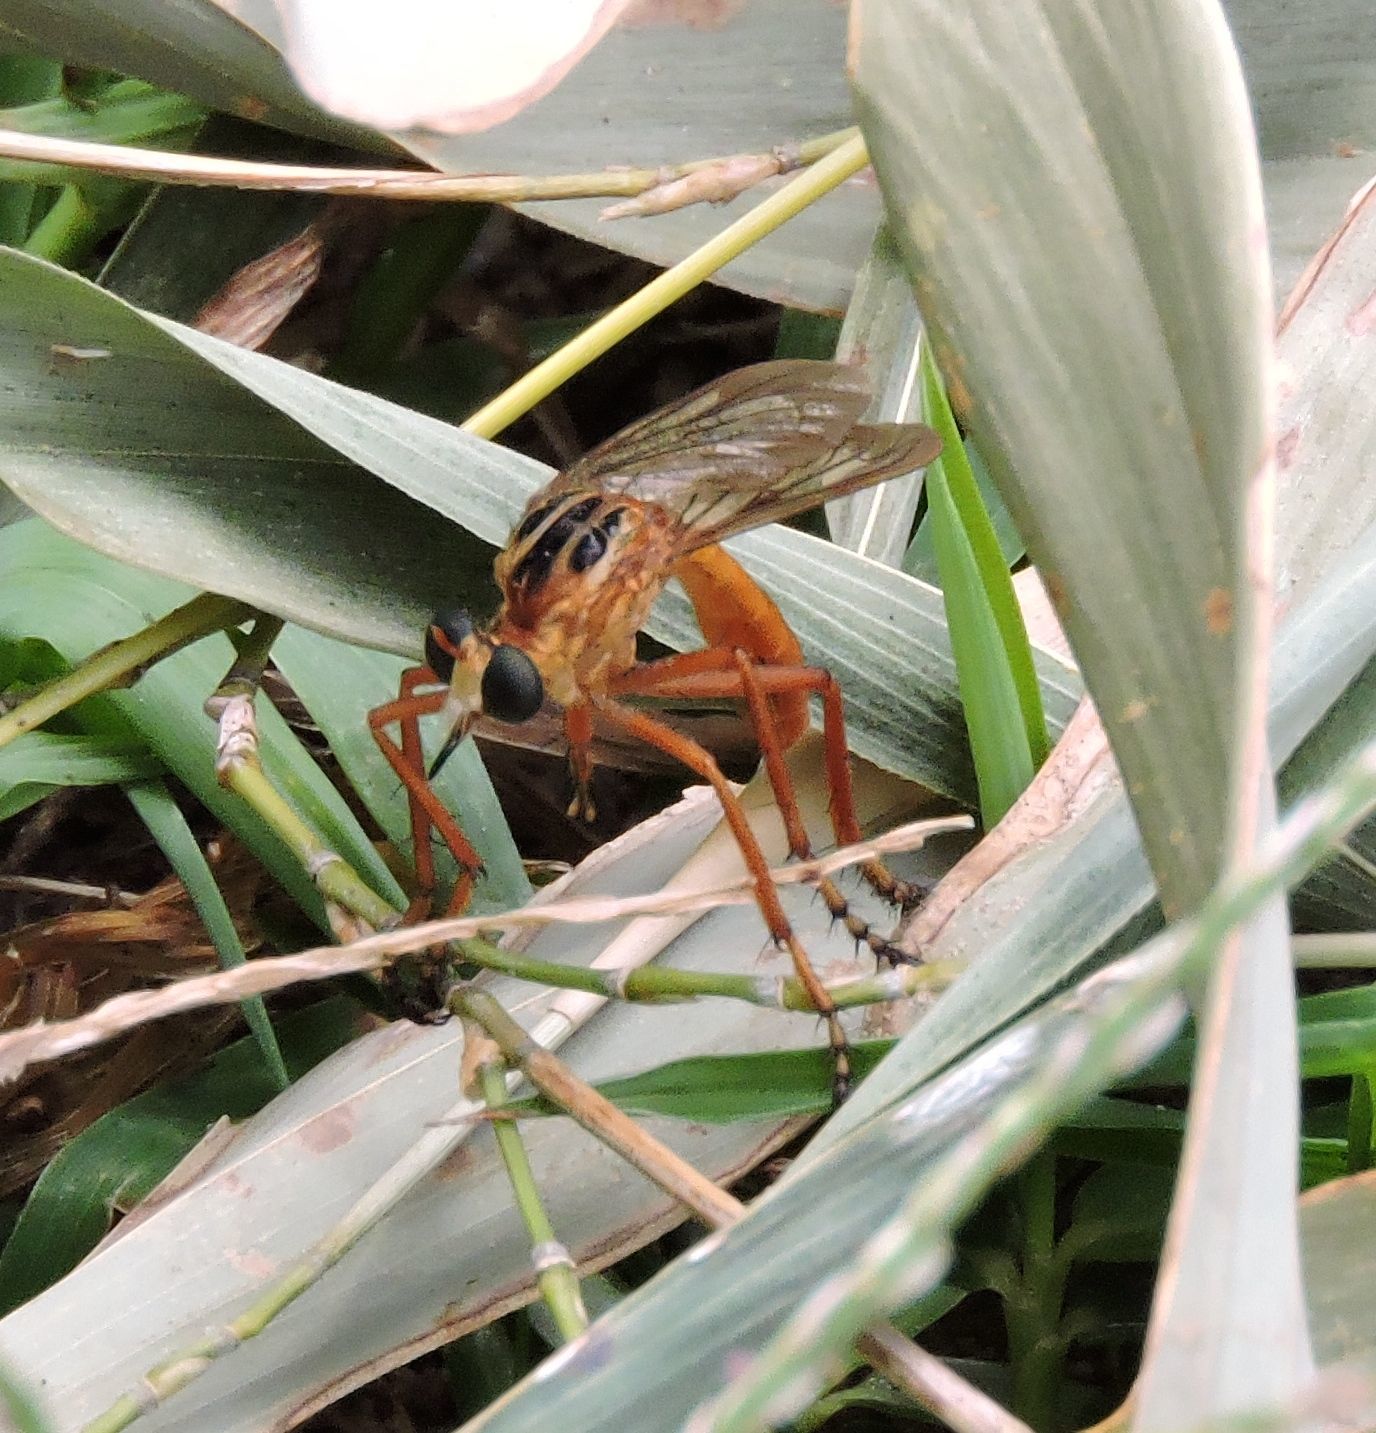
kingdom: Animalia
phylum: Arthropoda
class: Insecta
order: Diptera
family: Asilidae
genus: Diogmites
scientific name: Diogmites neoternatus
